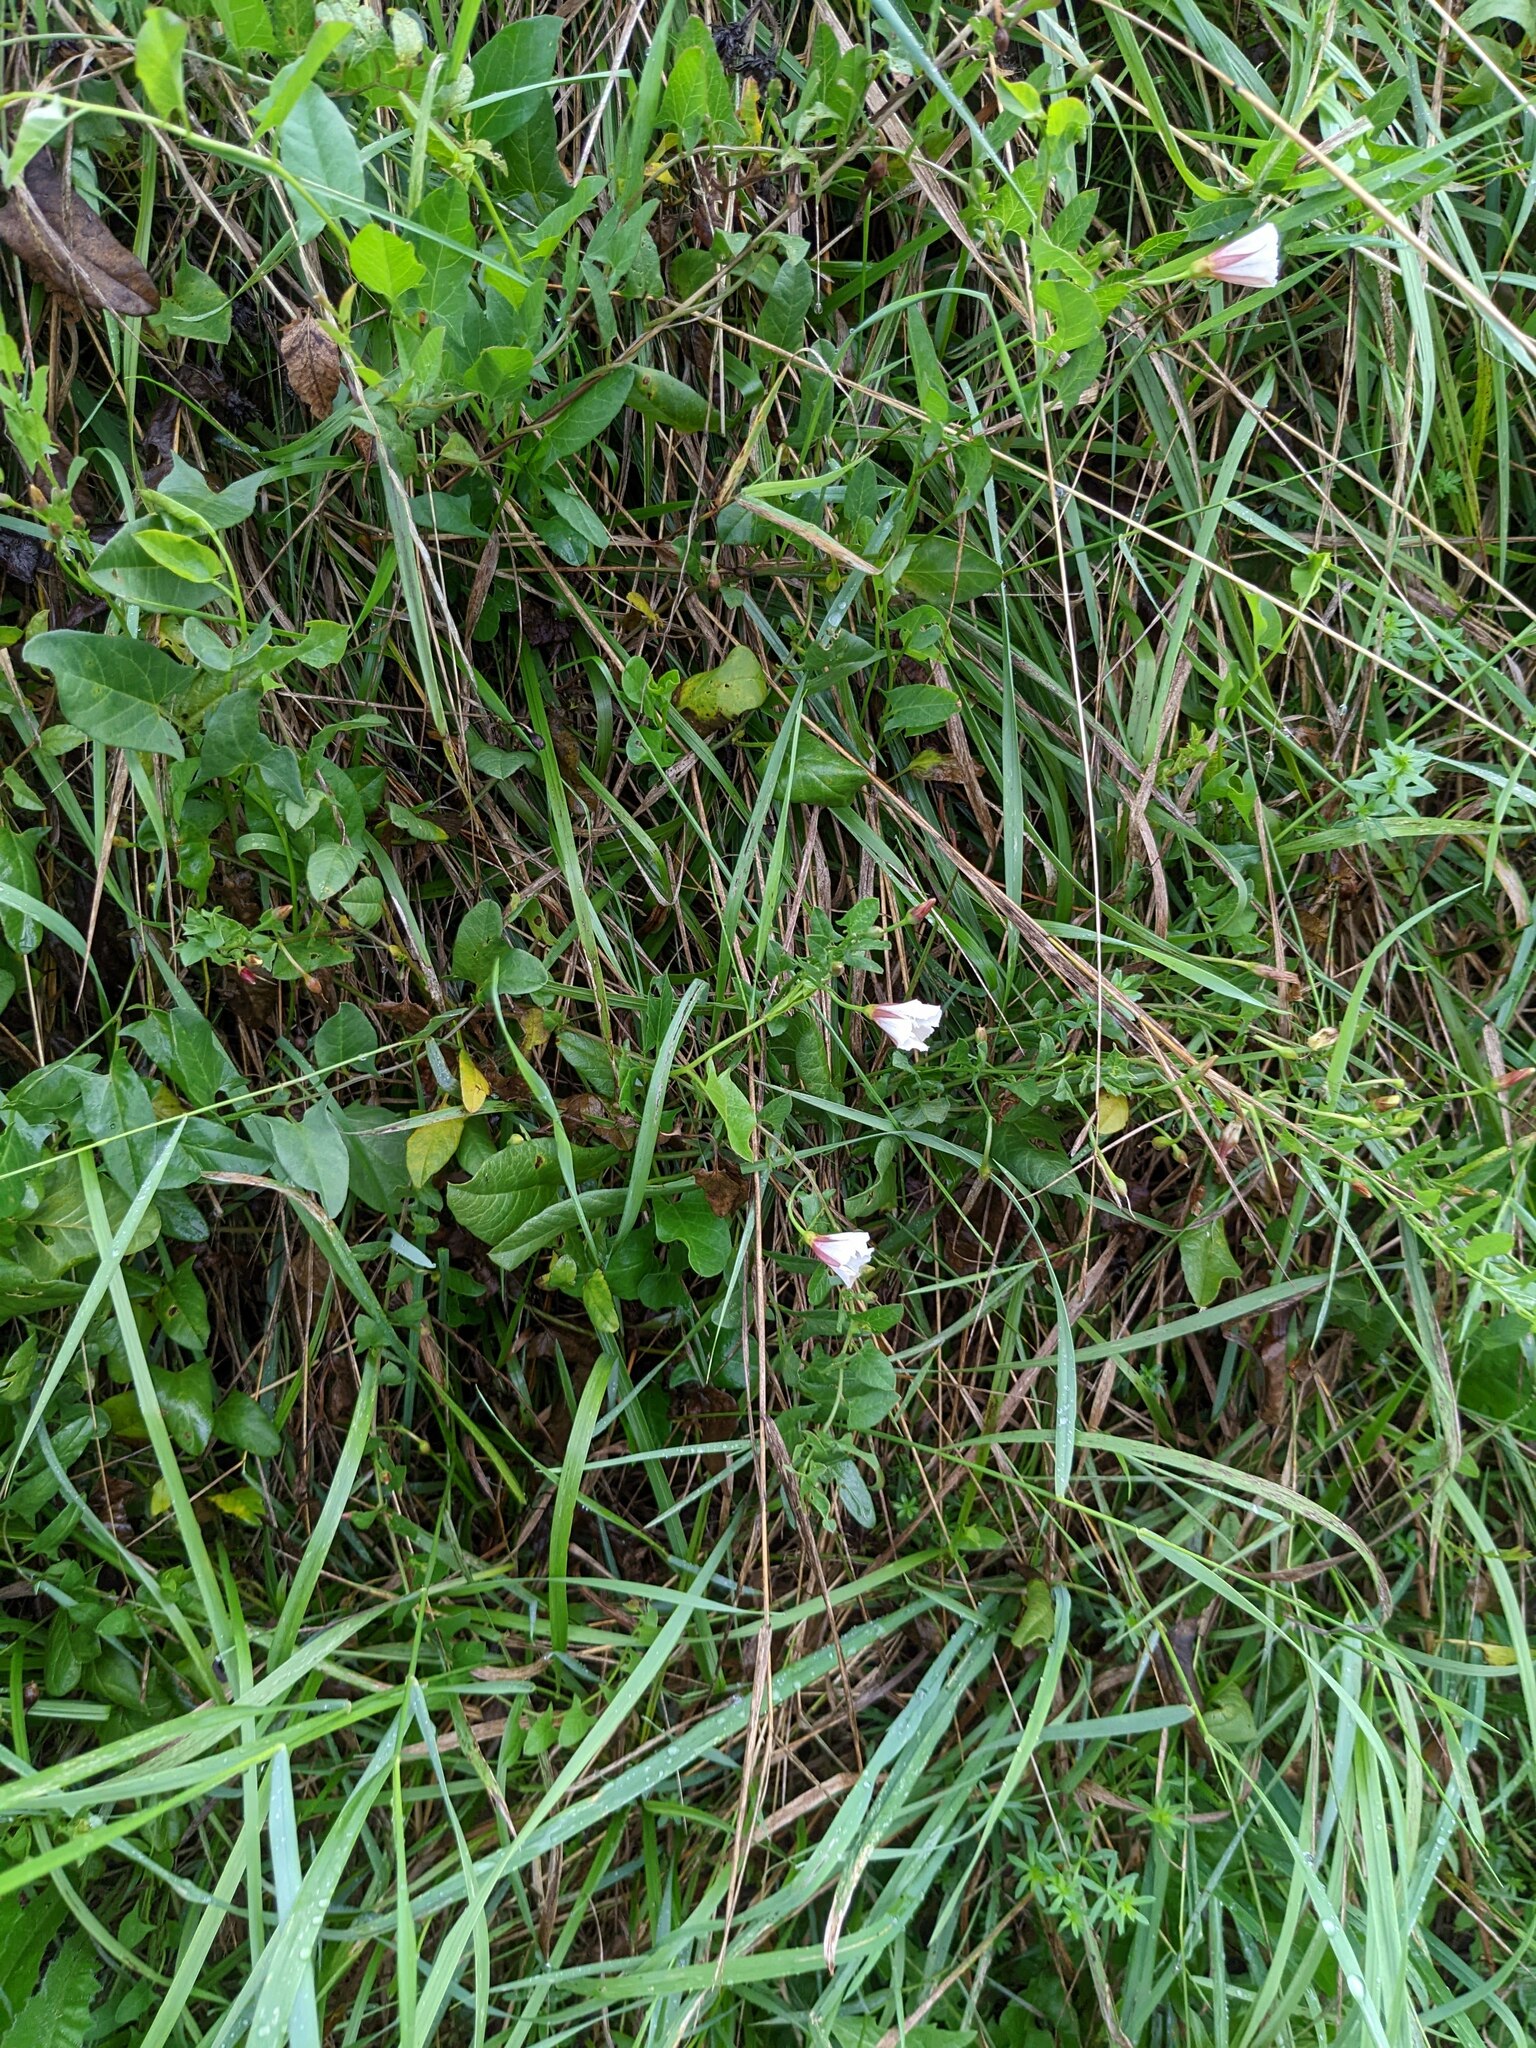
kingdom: Plantae
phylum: Tracheophyta
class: Magnoliopsida
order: Solanales
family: Convolvulaceae
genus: Convolvulus
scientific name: Convolvulus arvensis
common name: Field bindweed
